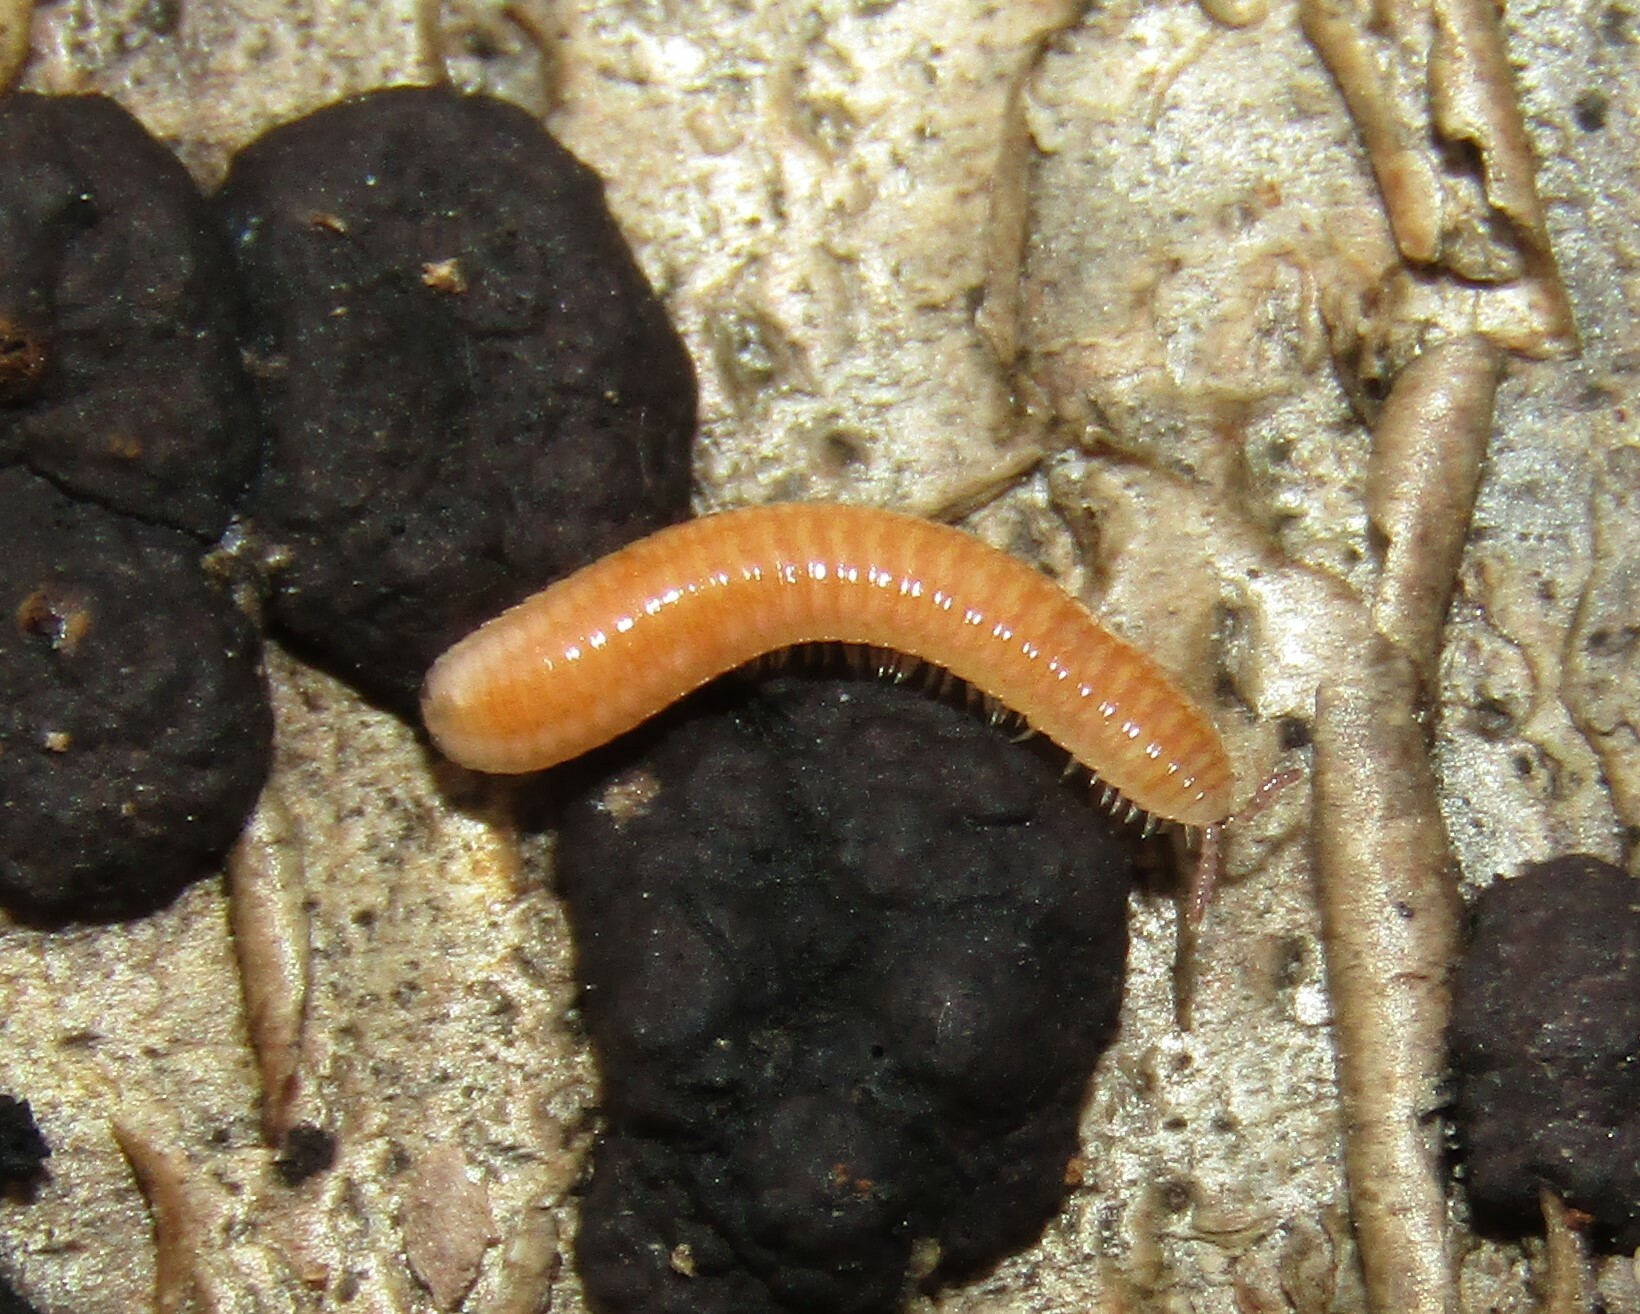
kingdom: Animalia
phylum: Arthropoda
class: Diplopoda
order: Polyzoniida
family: Polyzoniidae
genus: Polyzonium
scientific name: Polyzonium germanicum
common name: Boring millipede
